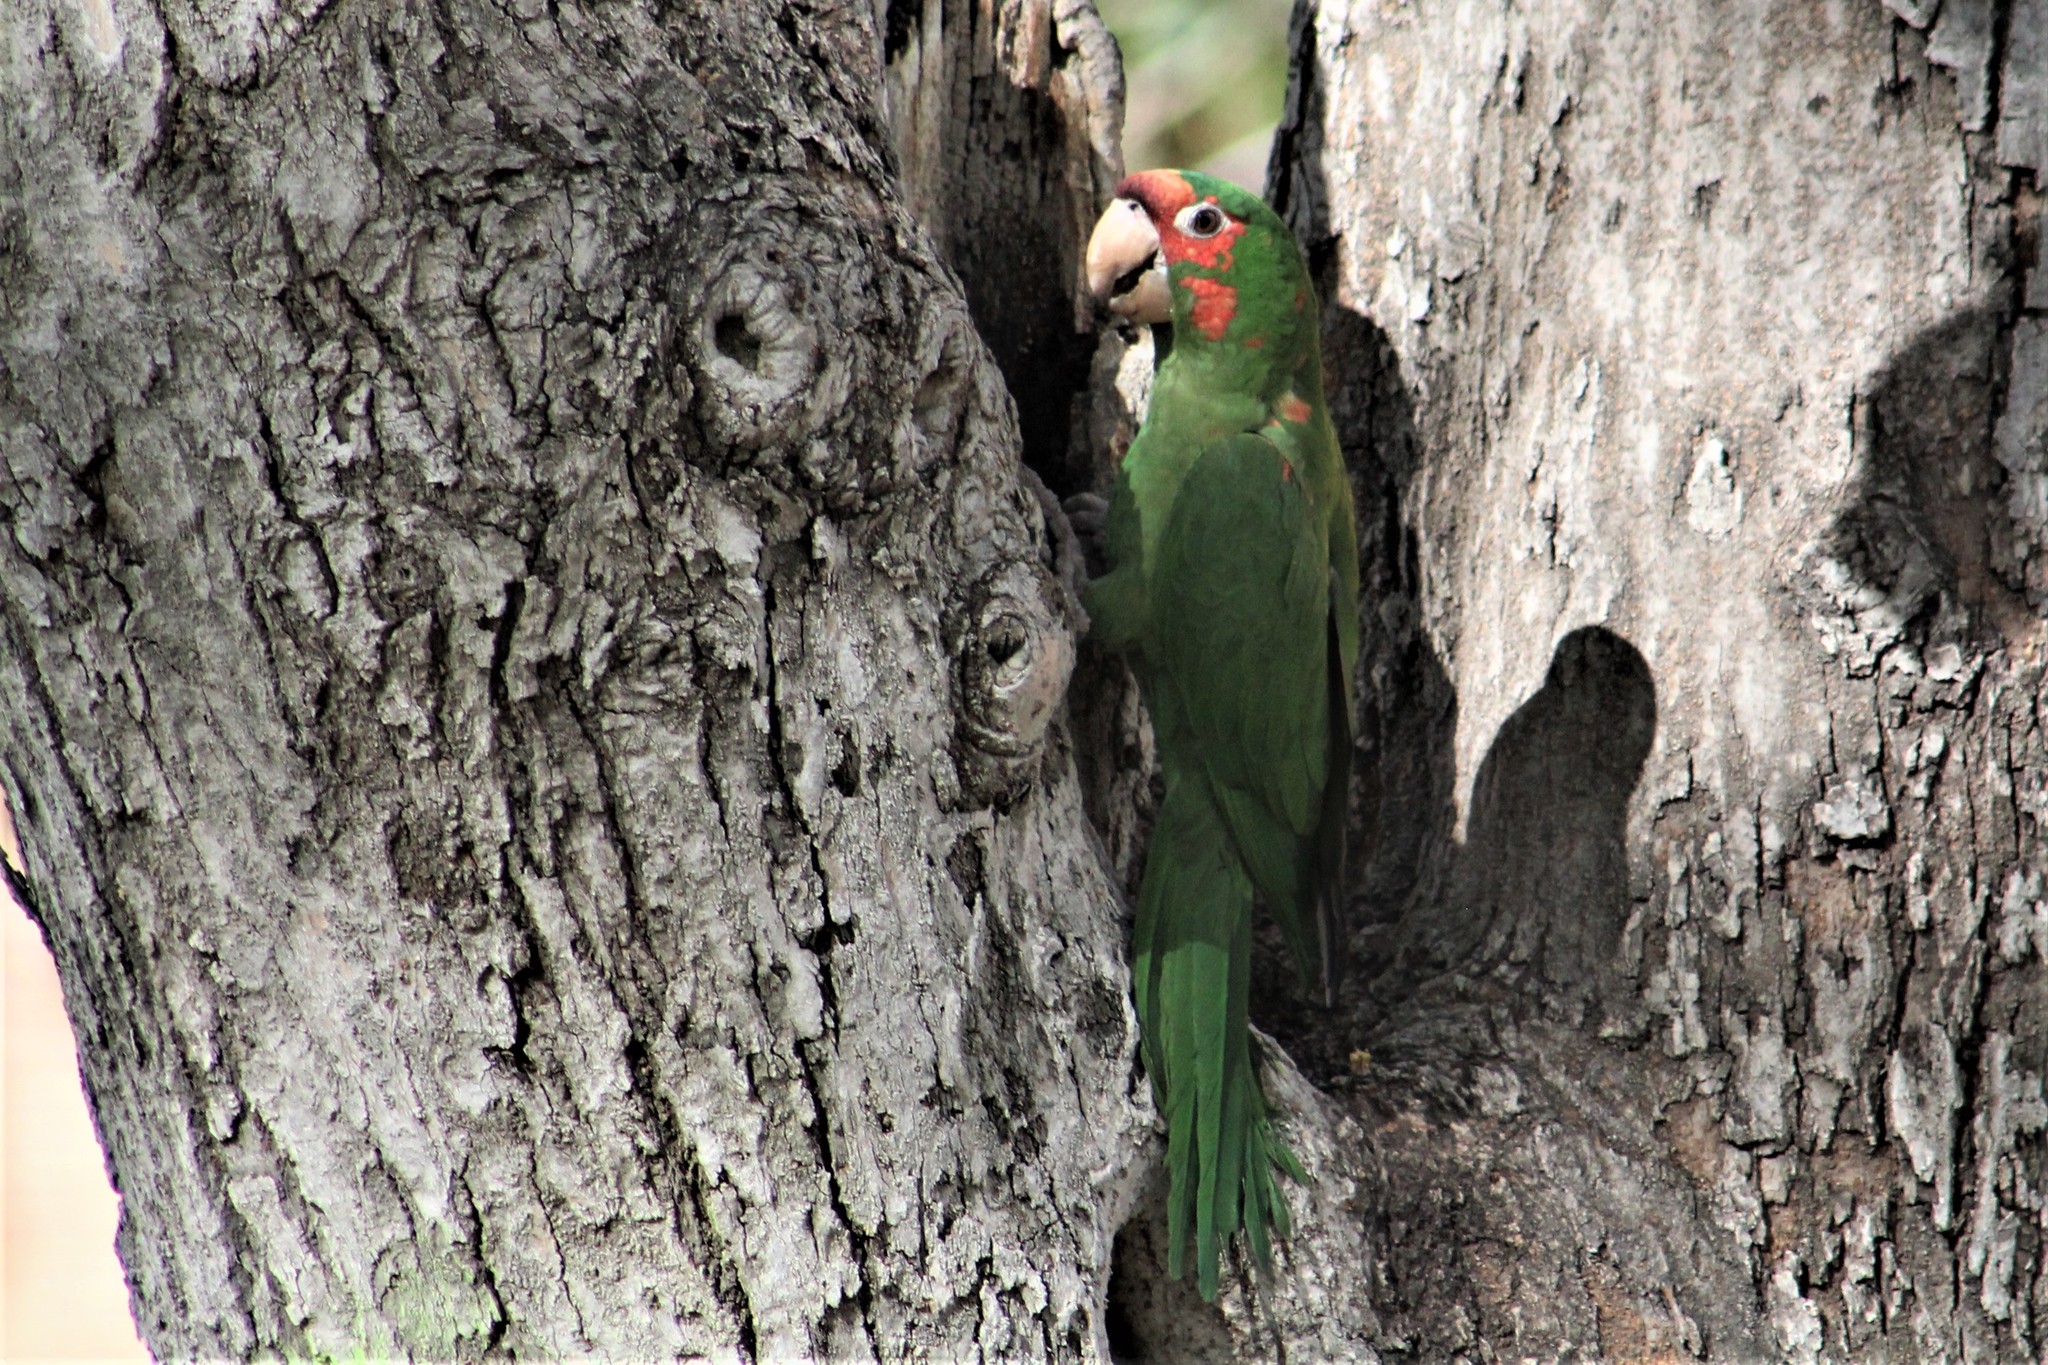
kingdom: Animalia
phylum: Chordata
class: Aves
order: Psittaciformes
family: Psittacidae
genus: Aratinga
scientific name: Aratinga mitrata
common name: Mitred parakeet
